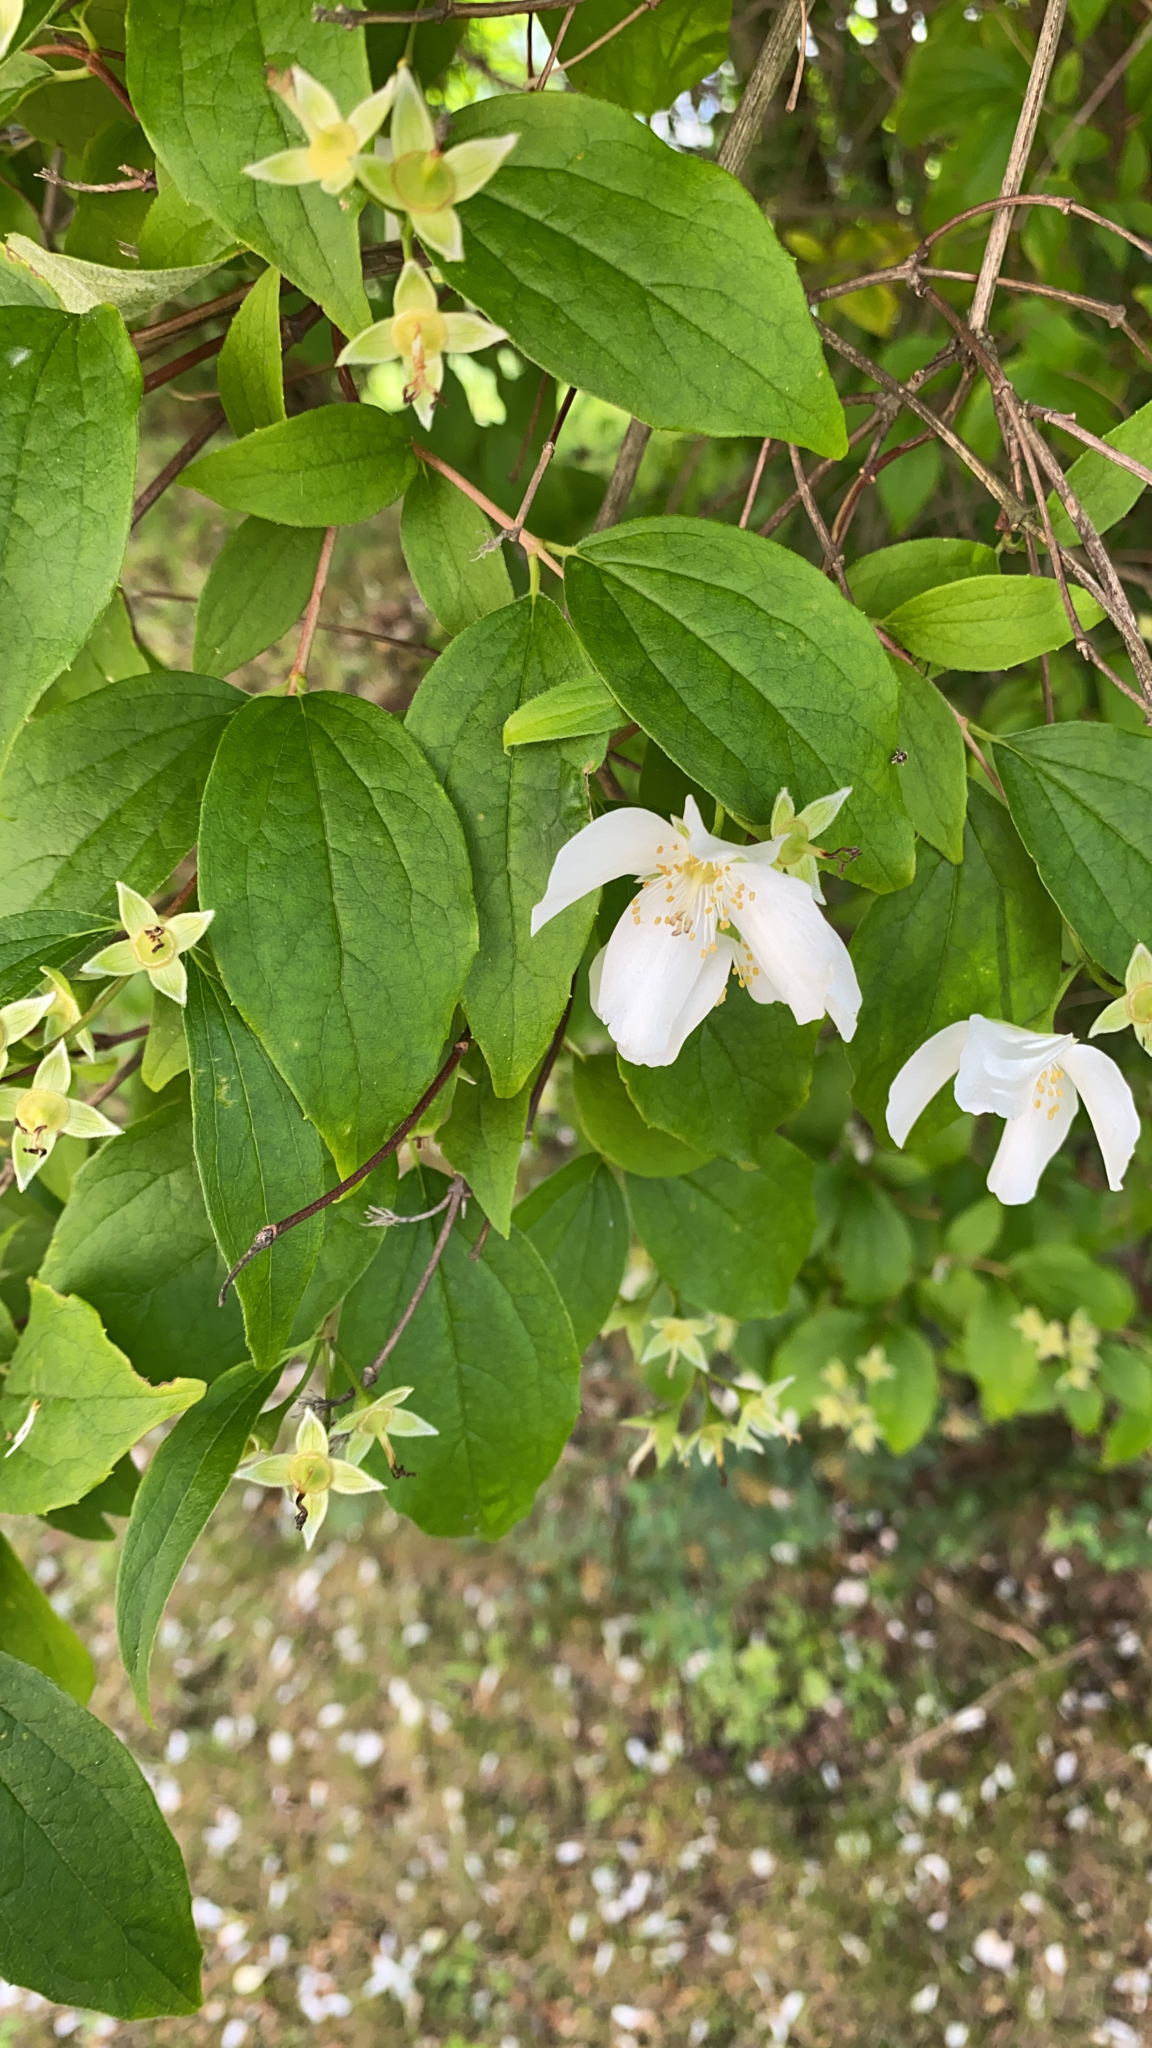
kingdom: Plantae
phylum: Tracheophyta
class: Magnoliopsida
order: Cornales
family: Hydrangeaceae
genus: Philadelphus
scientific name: Philadelphus coronarius
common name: Mock orange
